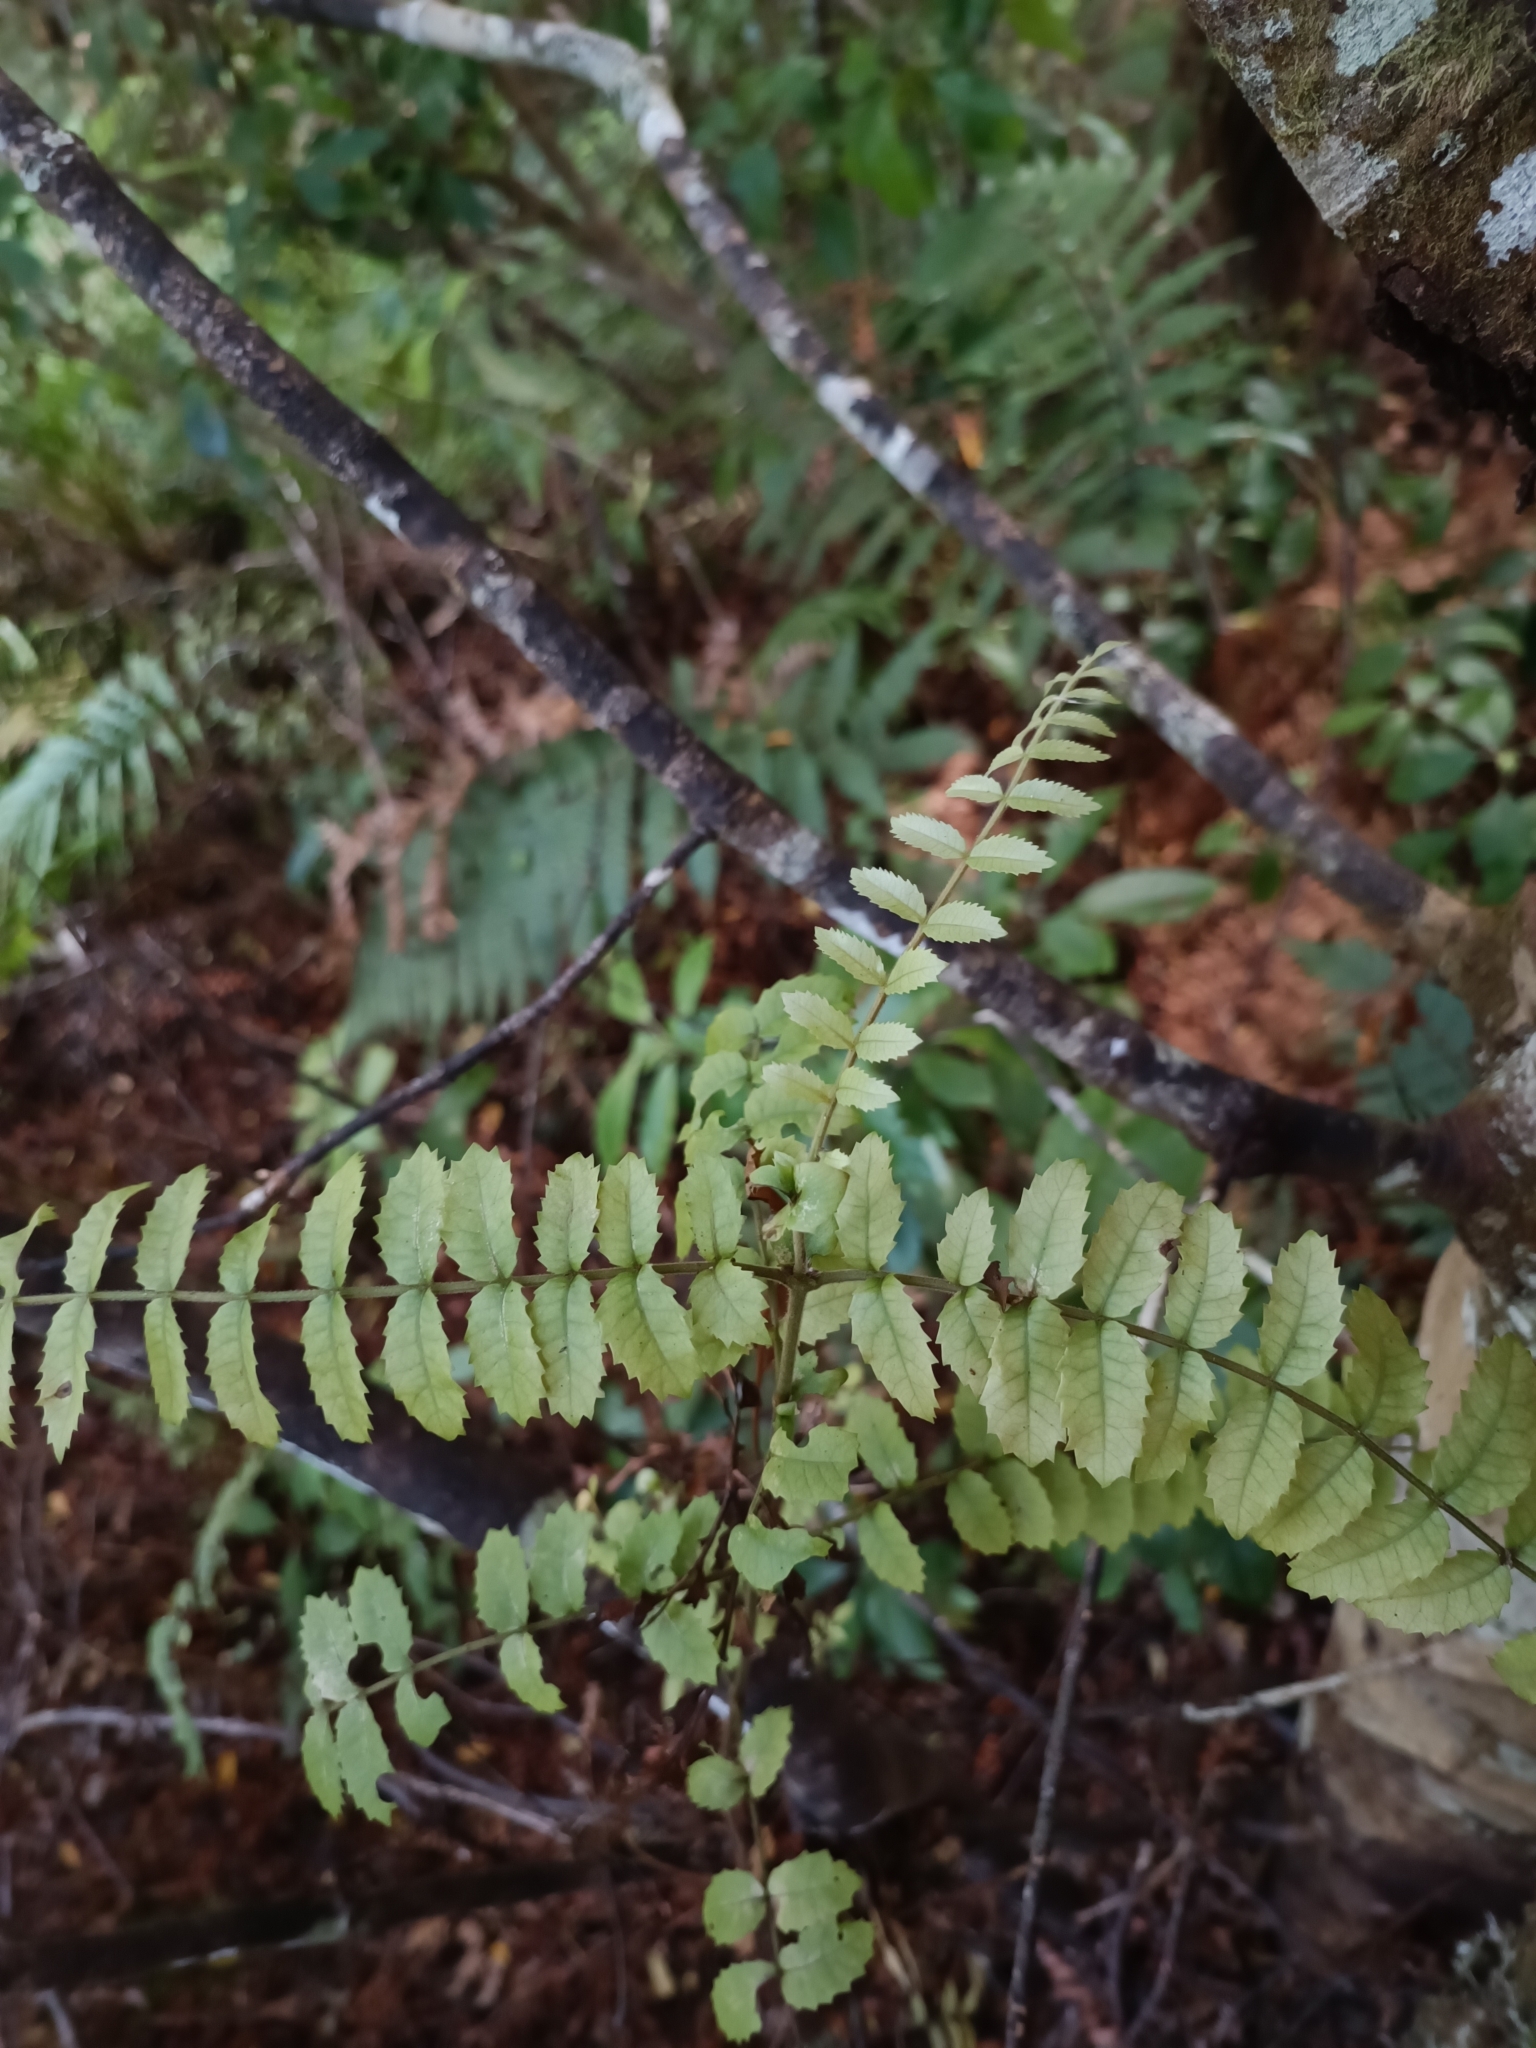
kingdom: Plantae
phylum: Tracheophyta
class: Magnoliopsida
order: Oxalidales
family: Cunoniaceae
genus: Ackama
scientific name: Ackama rosifolia
